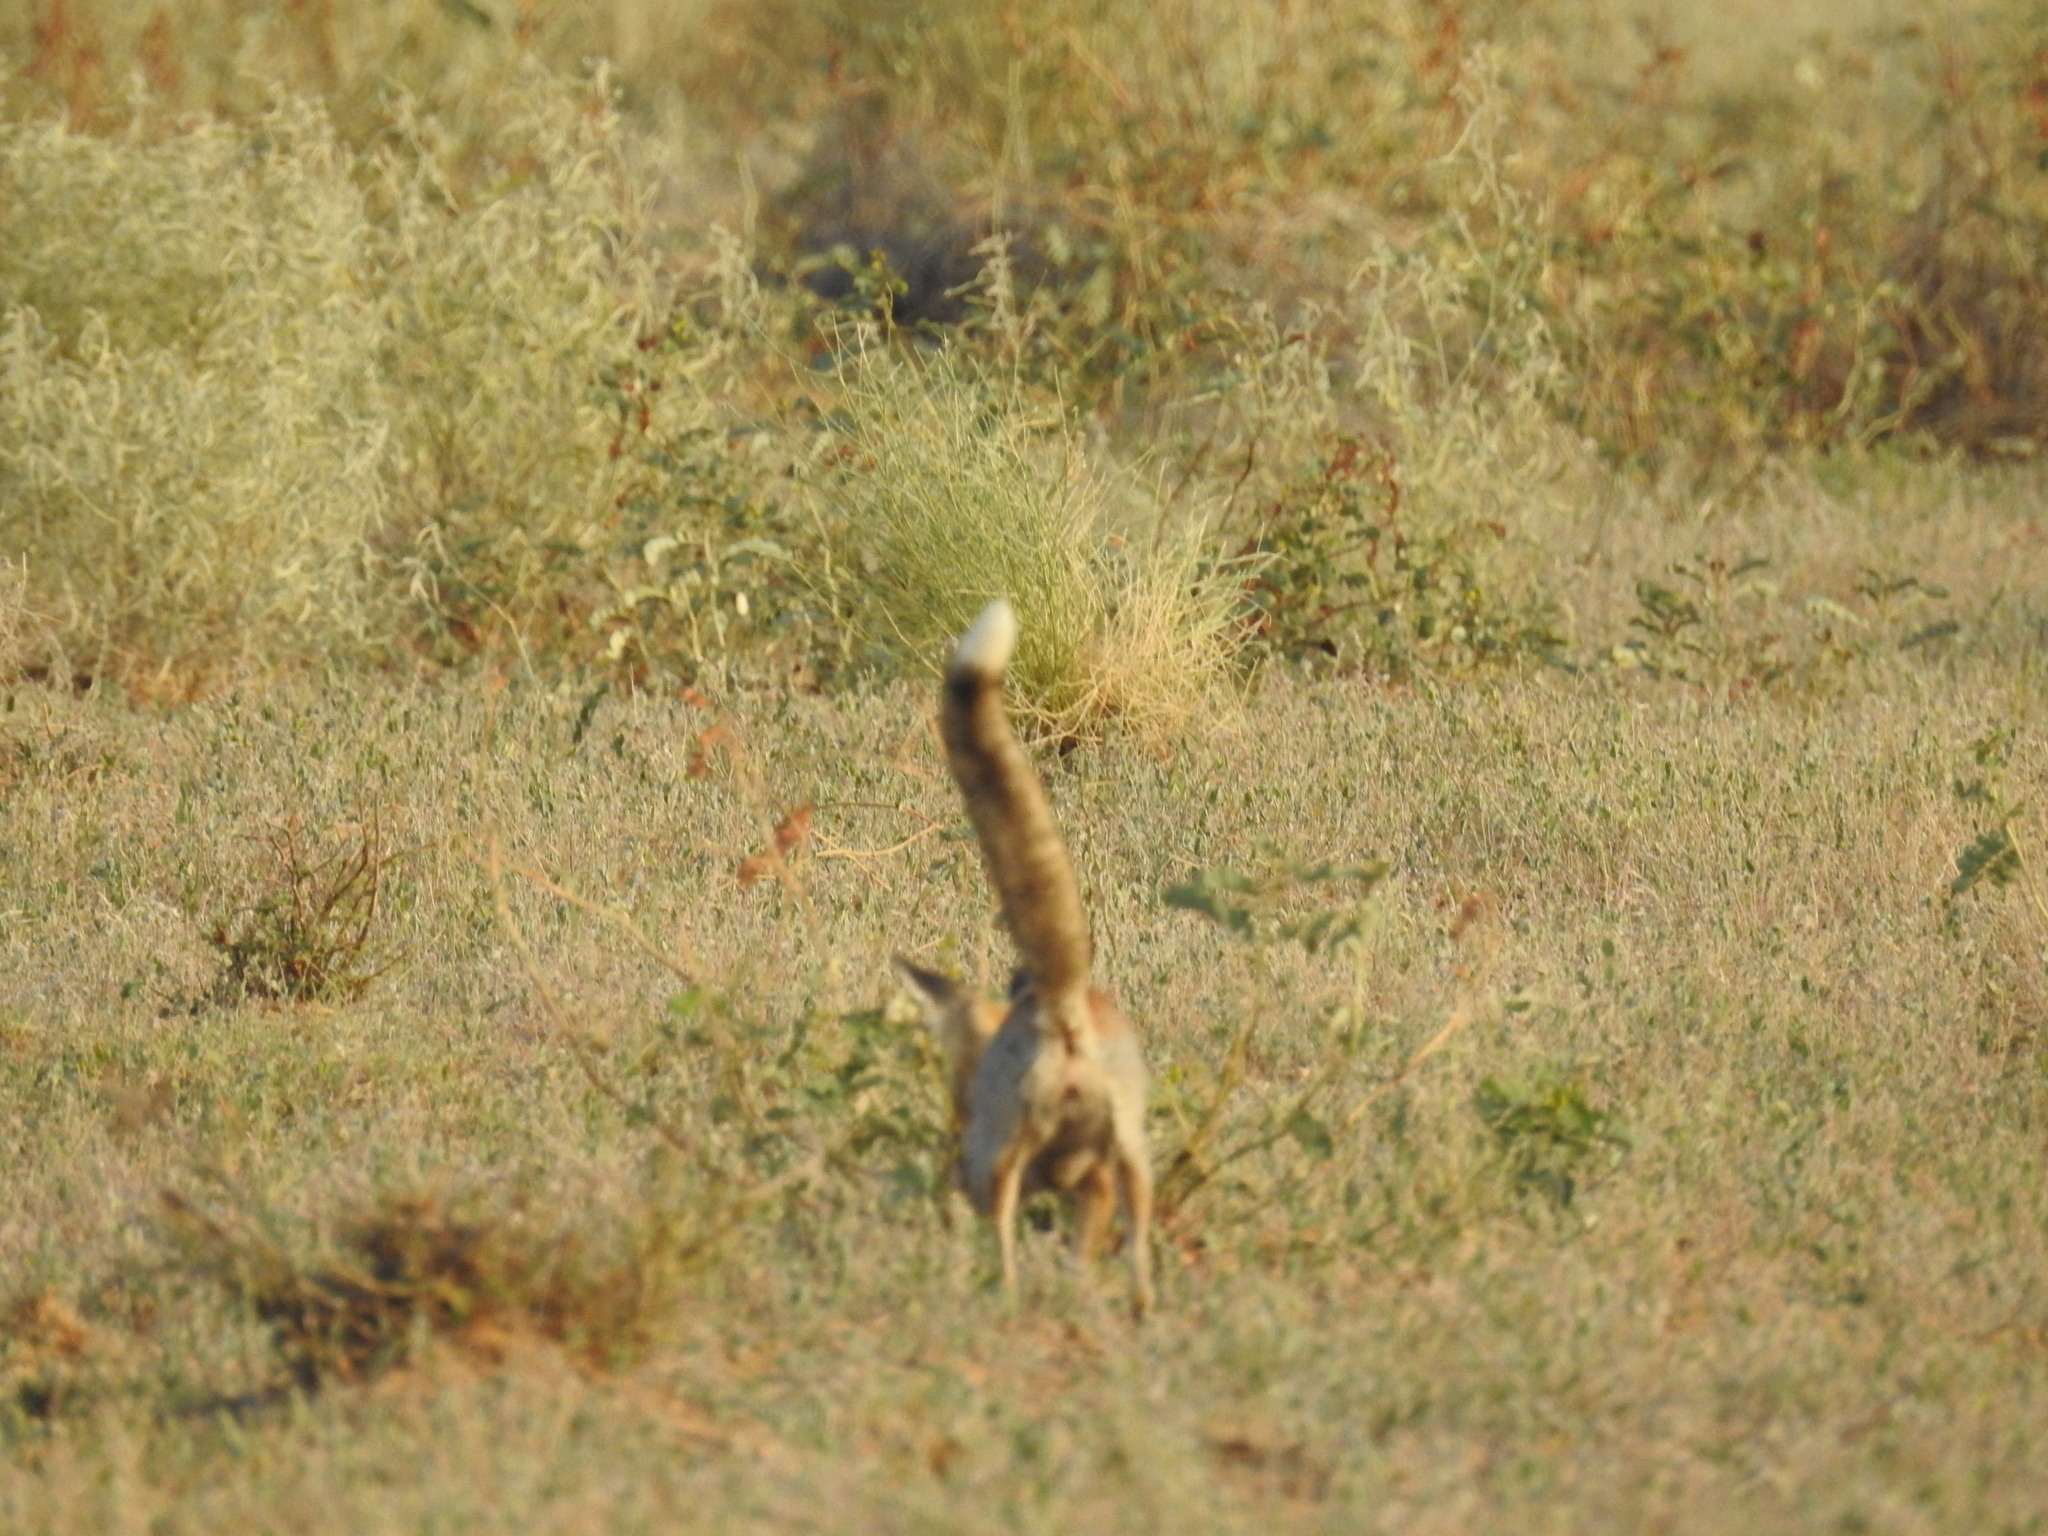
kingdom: Animalia
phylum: Chordata
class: Mammalia
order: Carnivora
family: Canidae
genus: Vulpes
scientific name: Vulpes vulpes
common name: Red fox
